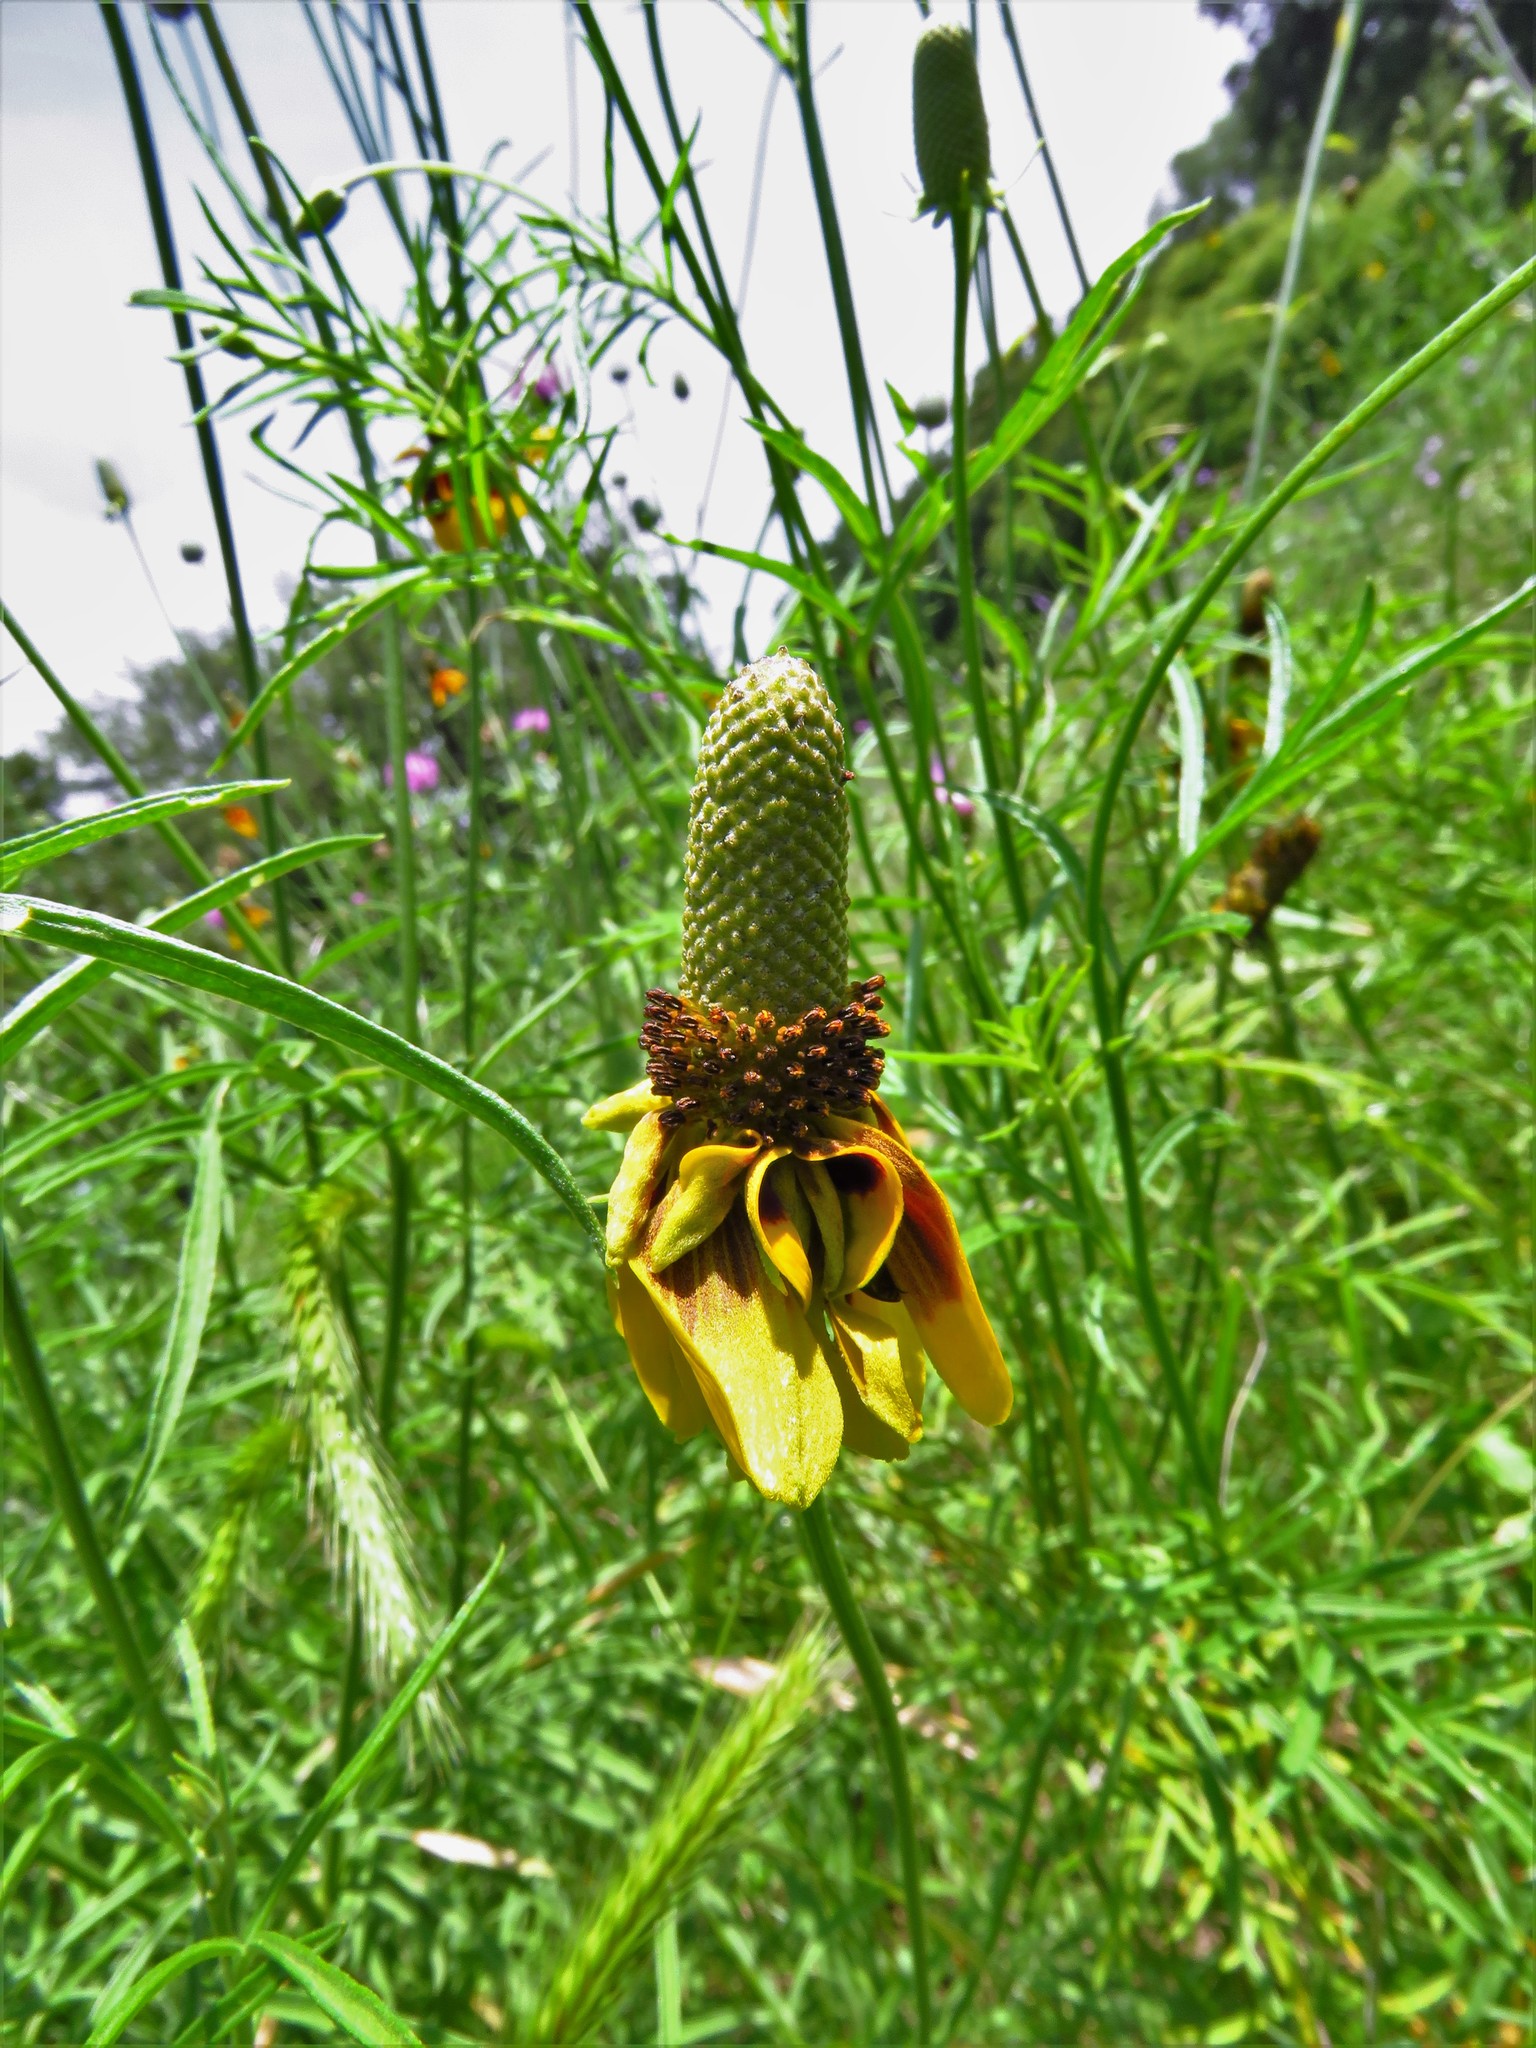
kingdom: Plantae
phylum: Tracheophyta
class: Magnoliopsida
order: Asterales
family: Asteraceae
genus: Ratibida
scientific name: Ratibida columnifera
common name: Prairie coneflower
